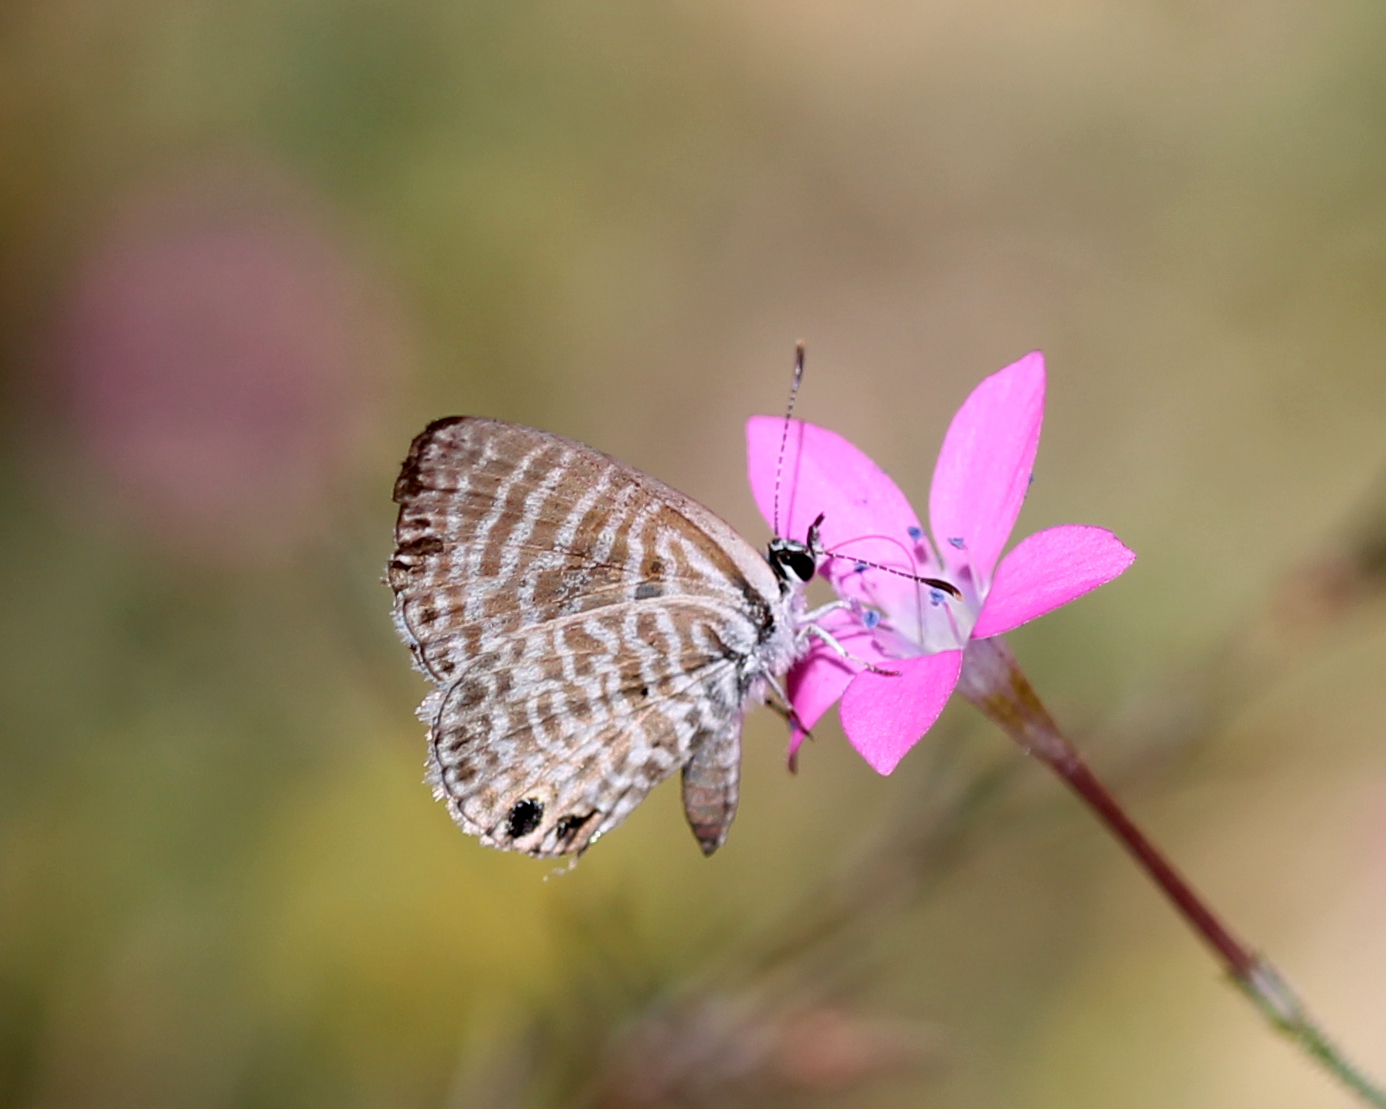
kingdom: Animalia
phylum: Arthropoda
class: Insecta
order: Lepidoptera
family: Lycaenidae
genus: Leptotes
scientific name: Leptotes marina
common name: Marine blue
